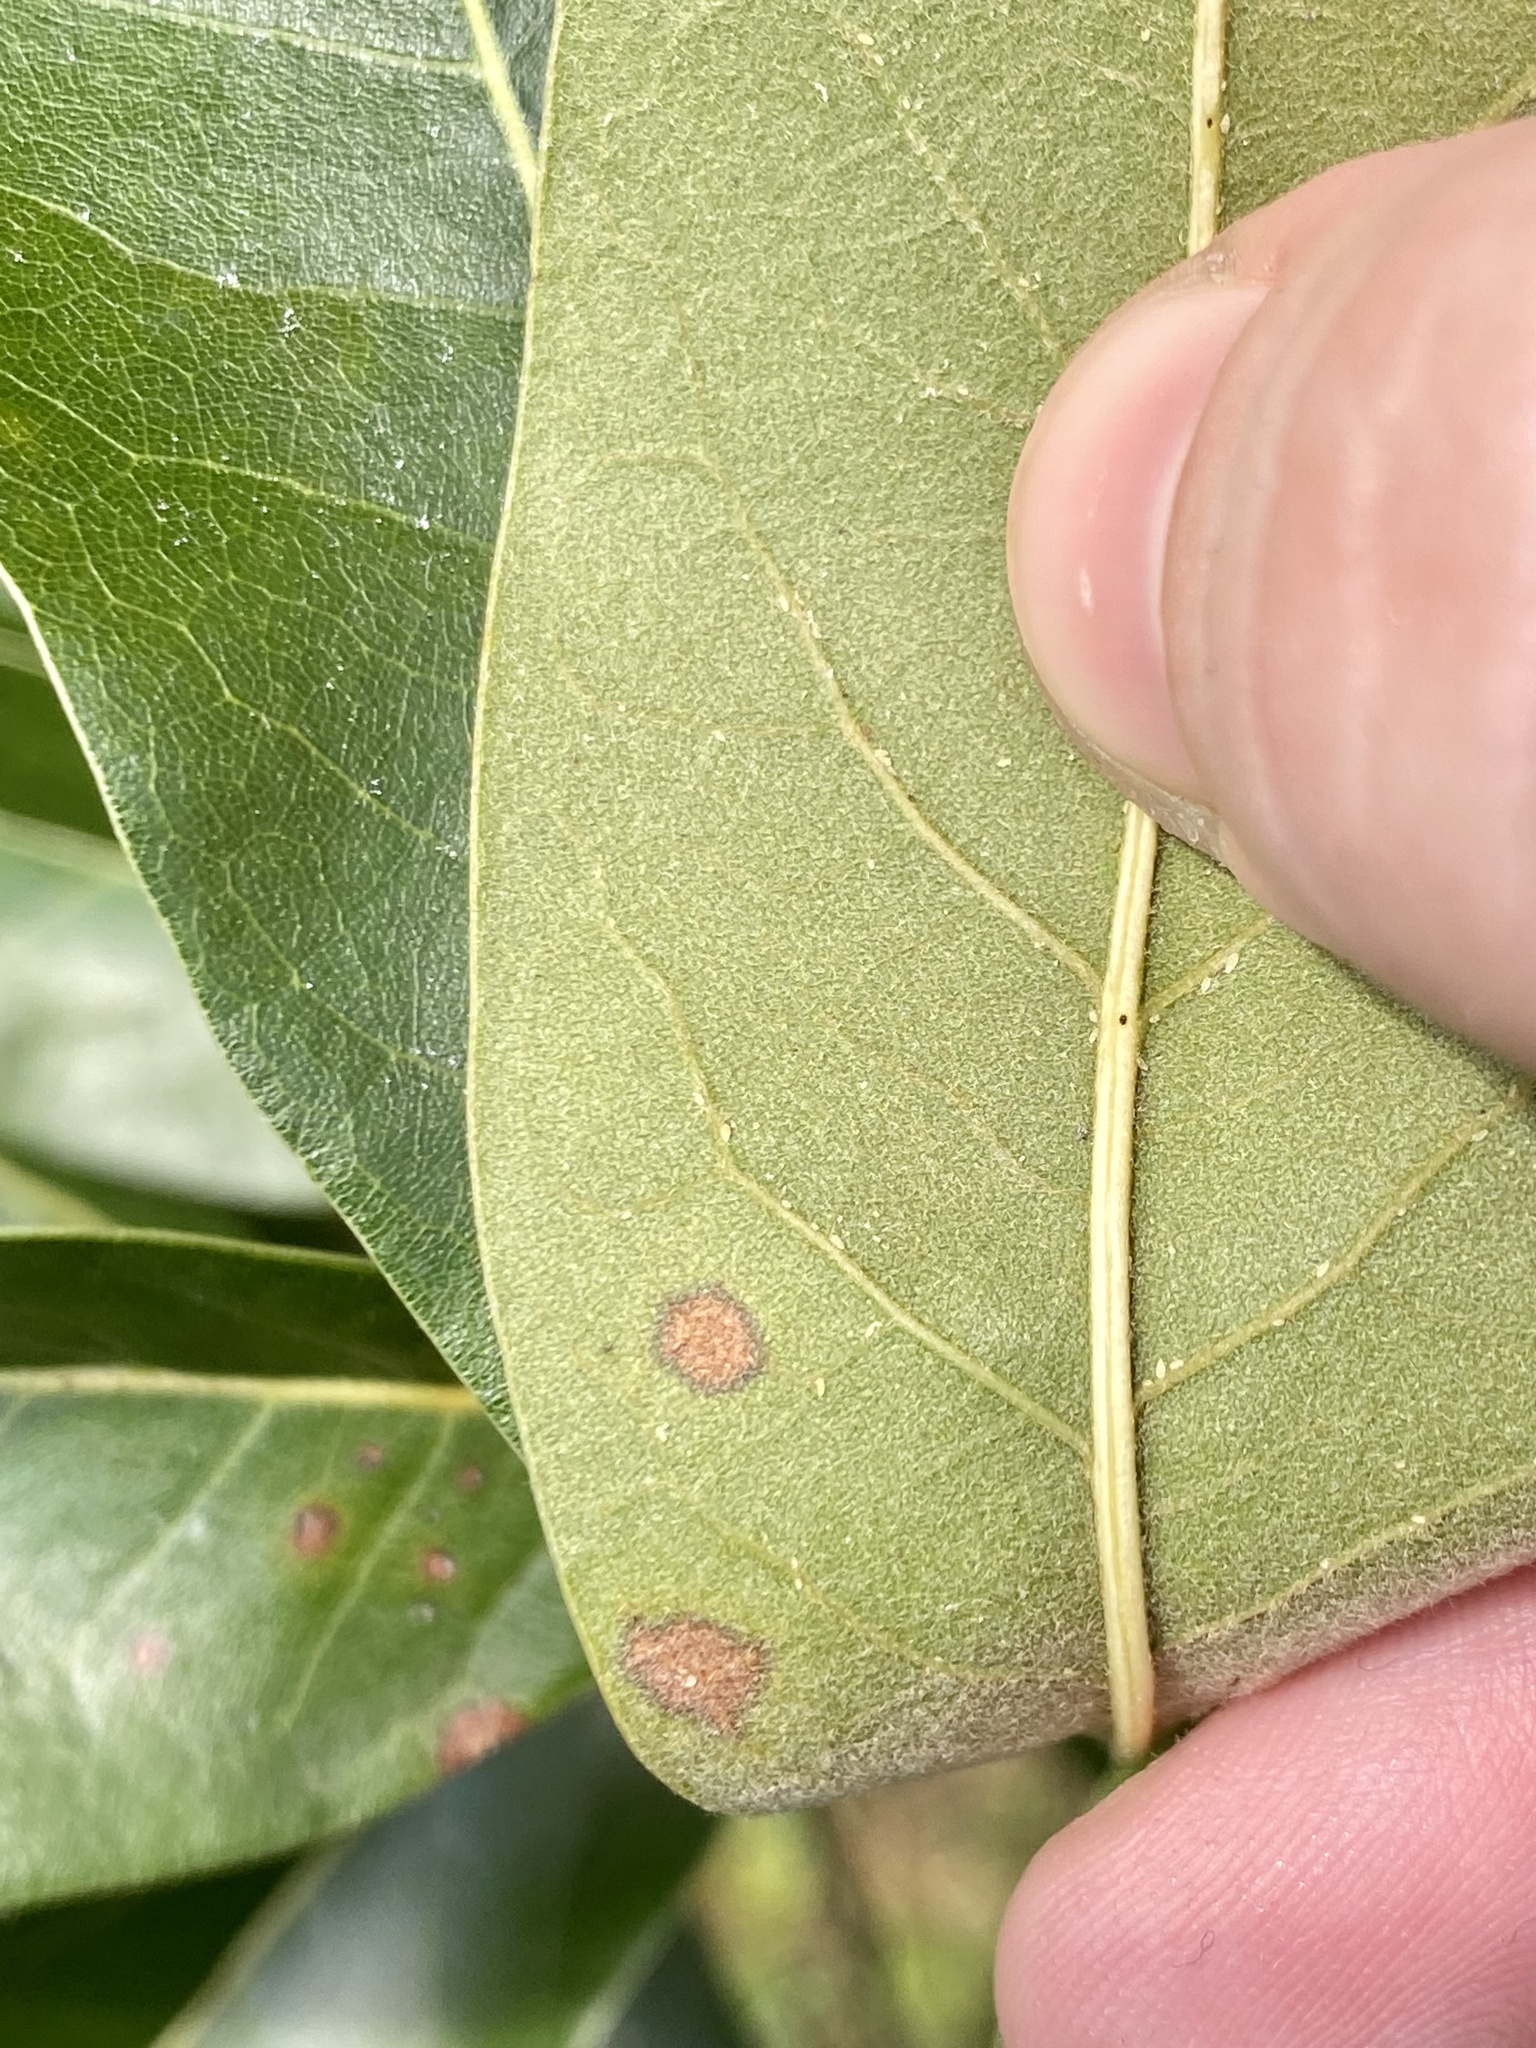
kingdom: Plantae
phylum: Tracheophyta
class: Magnoliopsida
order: Fagales
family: Fagaceae
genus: Quercus
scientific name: Quercus imbricaria
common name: Shingle oak
